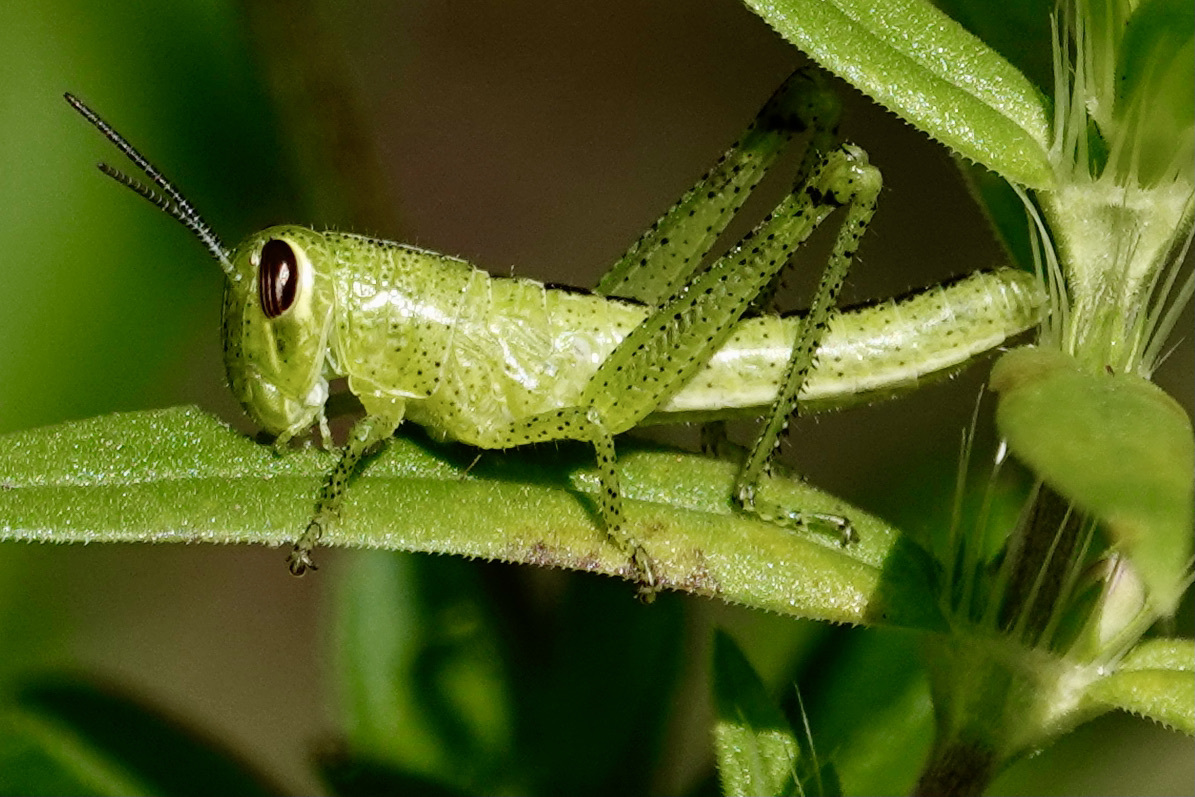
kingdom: Animalia
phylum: Arthropoda
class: Insecta
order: Orthoptera
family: Acrididae
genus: Schistocerca
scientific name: Schistocerca americana
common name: American bird locust
